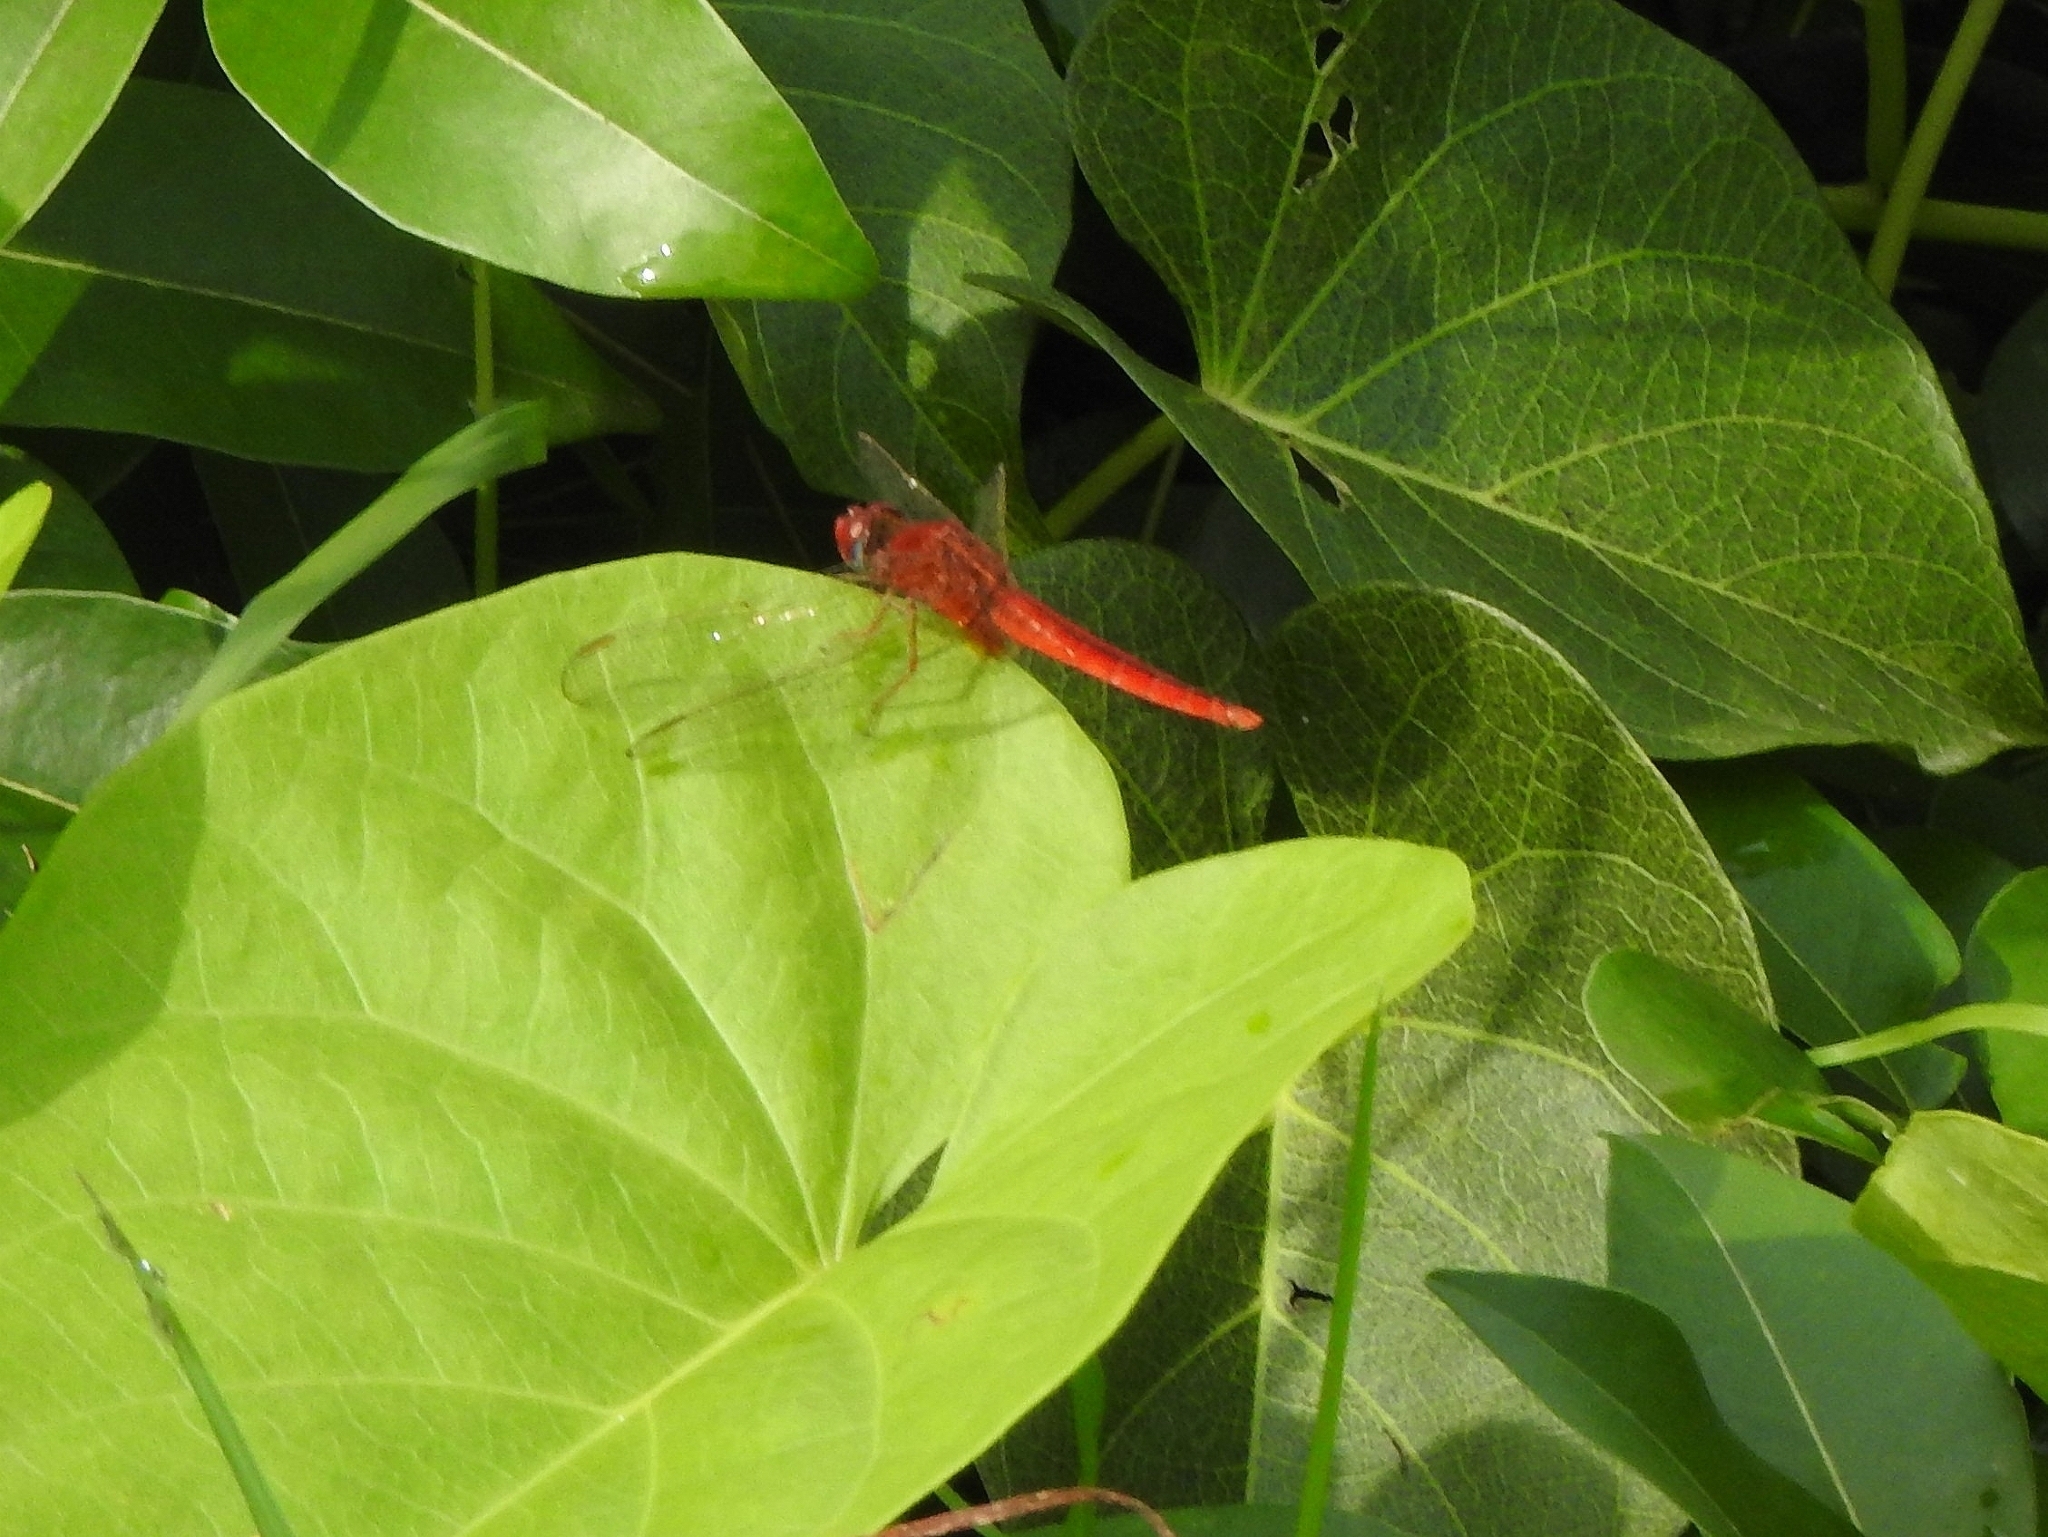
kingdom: Animalia
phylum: Arthropoda
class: Insecta
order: Odonata
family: Libellulidae
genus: Crocothemis
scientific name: Crocothemis servilia
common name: Scarlet skimmer
